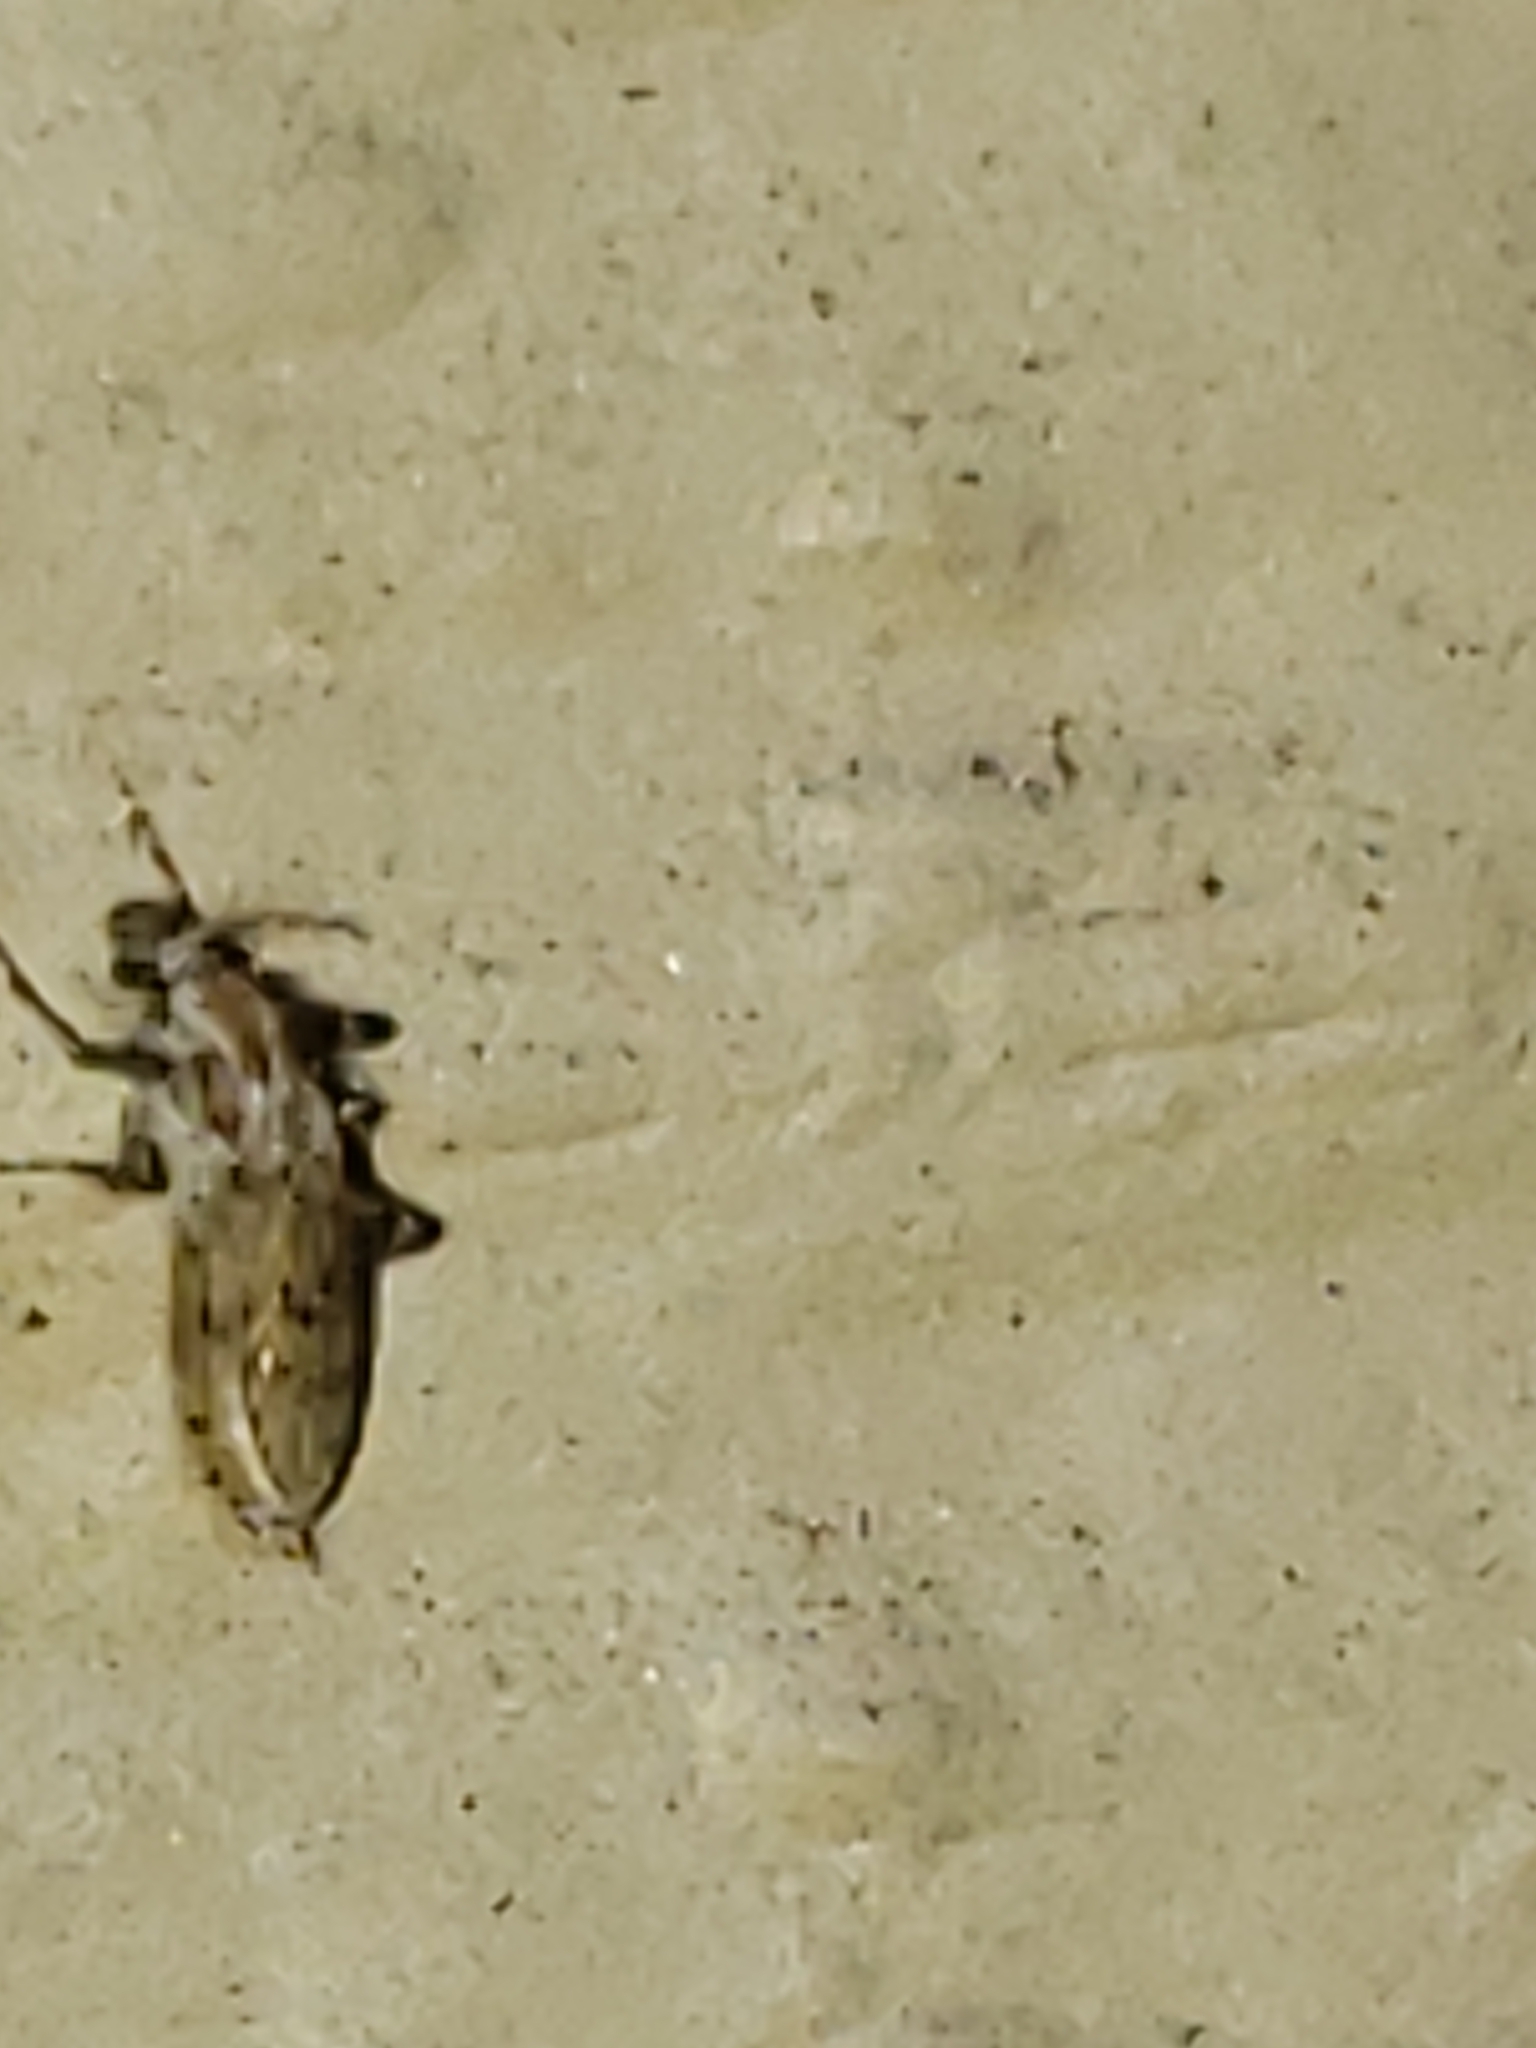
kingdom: Animalia
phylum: Arthropoda
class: Insecta
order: Diptera
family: Chaoboridae
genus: Chaoborus
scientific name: Chaoborus punctipennis
